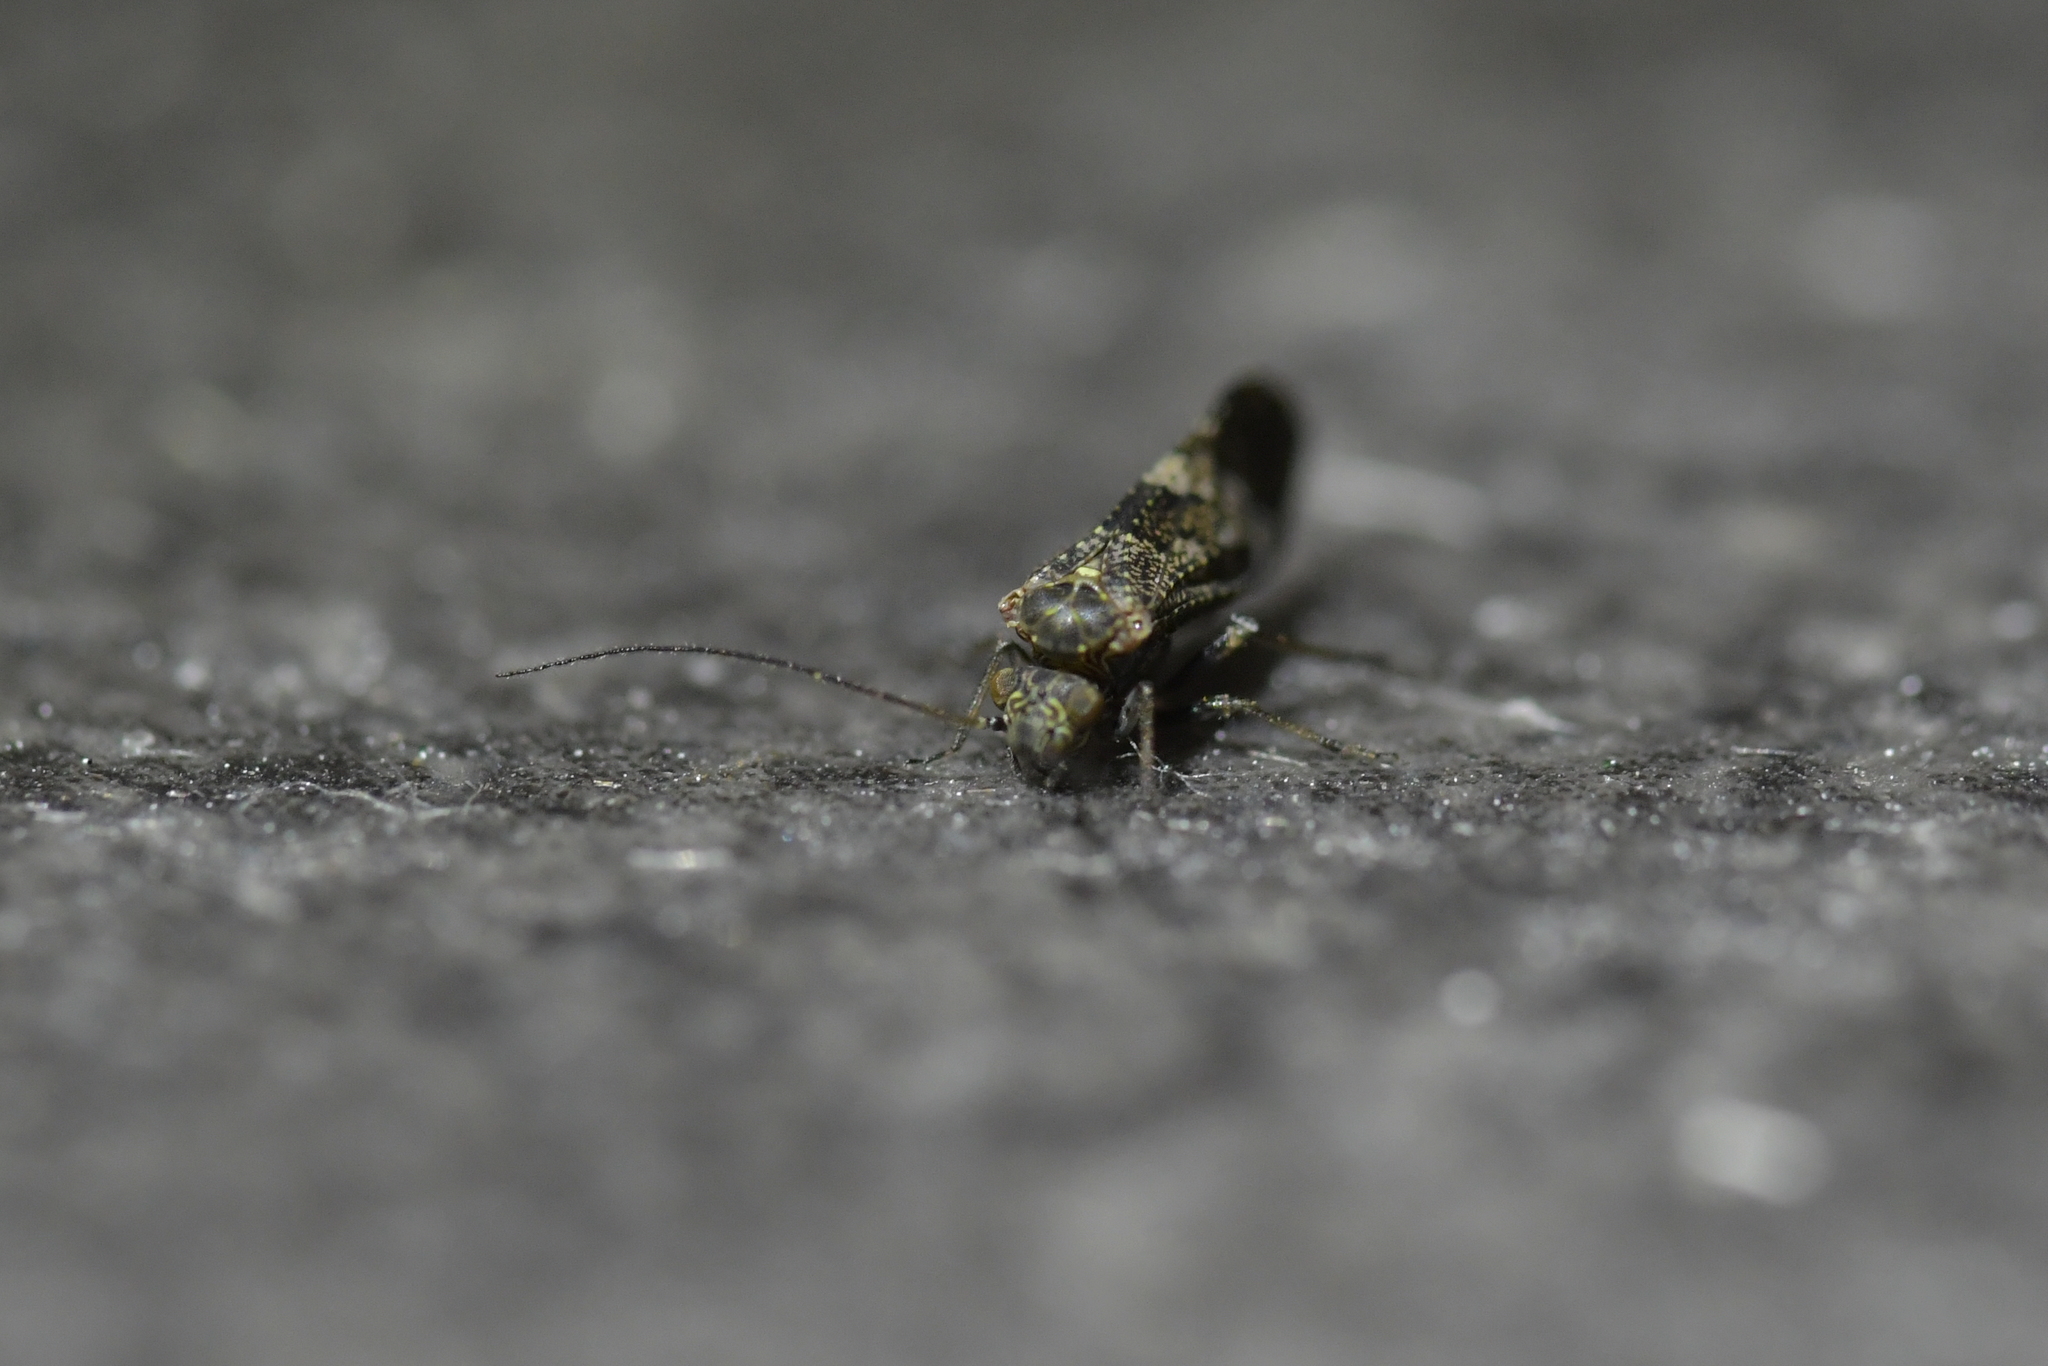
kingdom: Animalia
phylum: Arthropoda
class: Insecta
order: Psocodea
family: Myopsocidae
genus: Nimbopsocus
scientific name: Nimbopsocus australis
